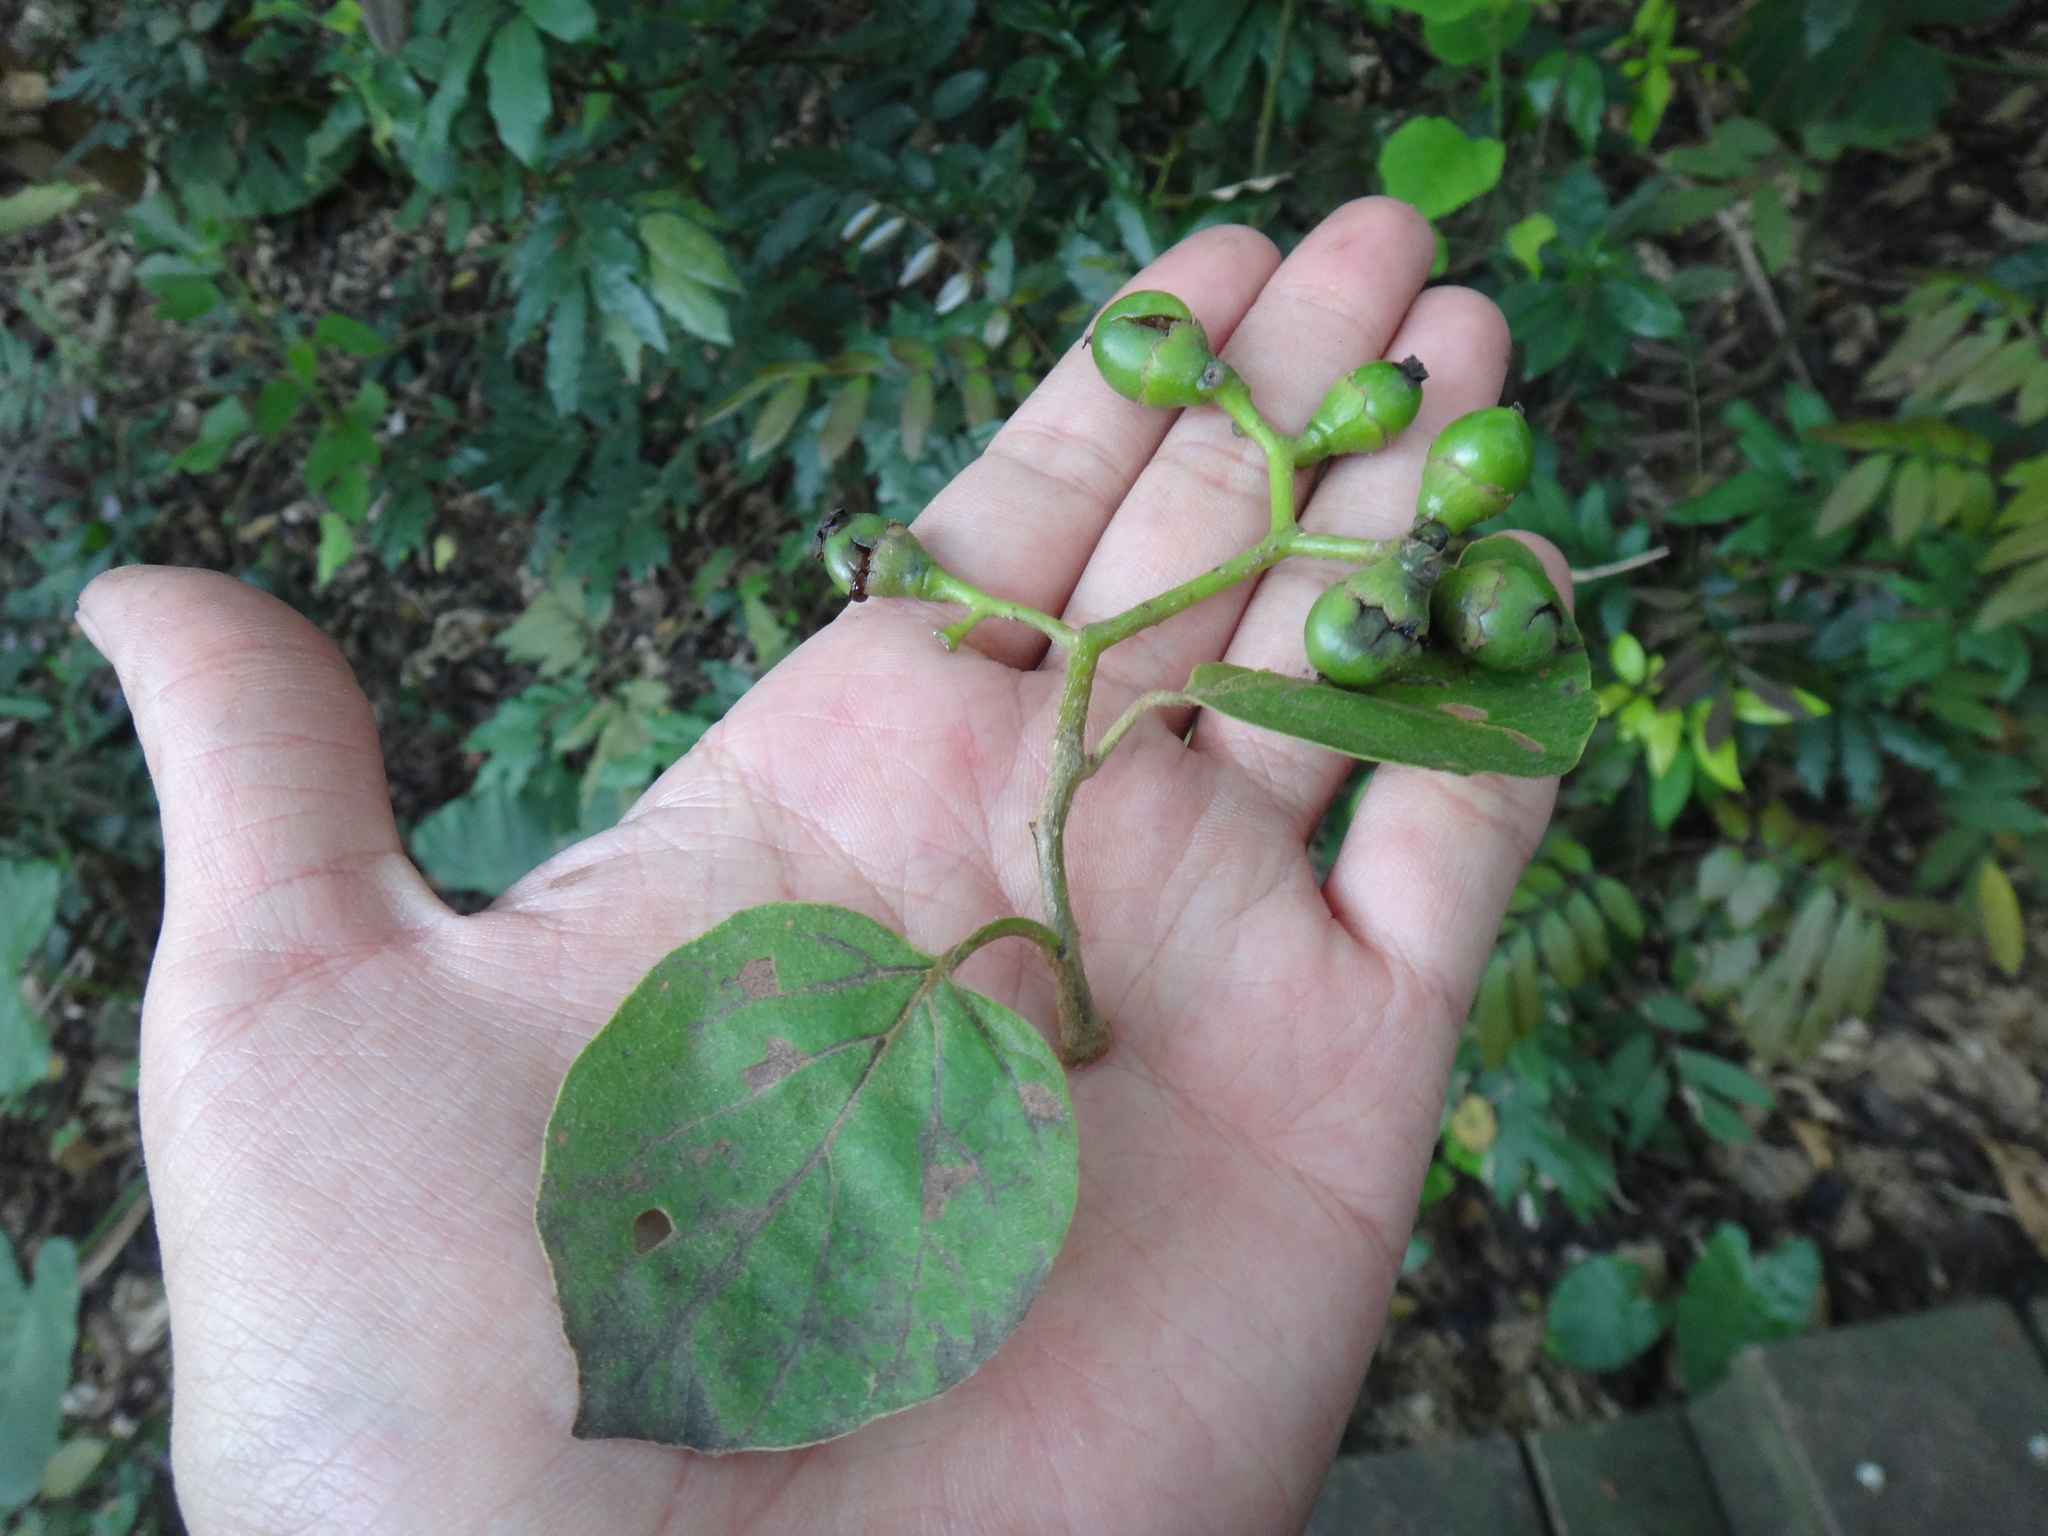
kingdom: Plantae
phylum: Tracheophyta
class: Magnoliopsida
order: Boraginales
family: Cordiaceae
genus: Cordia
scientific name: Cordia dichotoma
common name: Fragrant manjack
